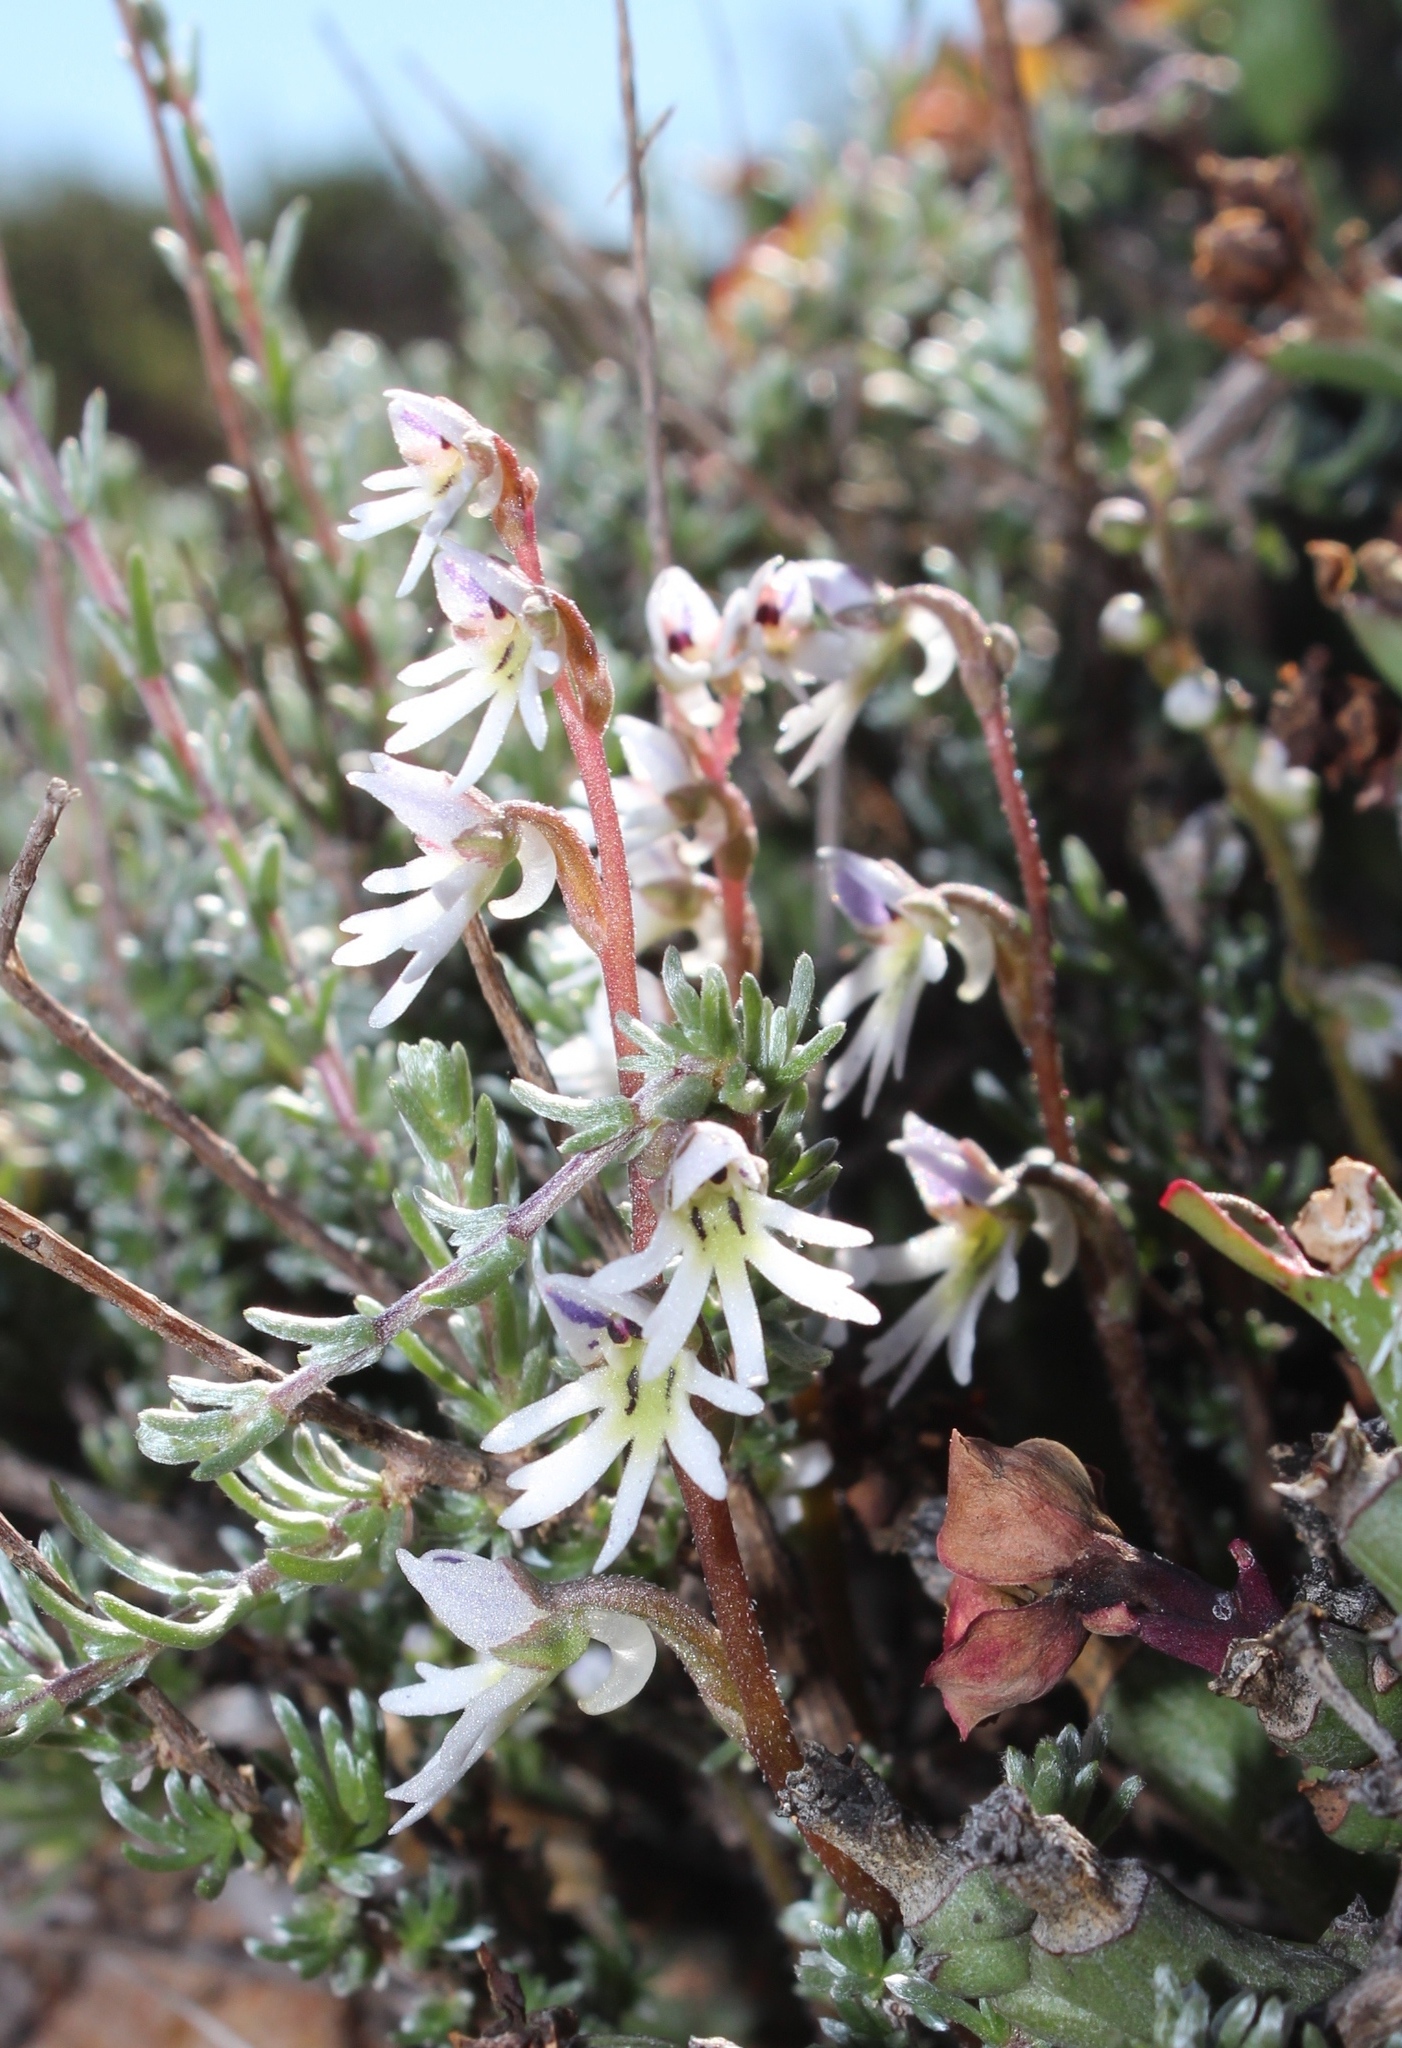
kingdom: Plantae
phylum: Tracheophyta
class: Liliopsida
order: Asparagales
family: Orchidaceae
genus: Holothrix
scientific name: Holothrix aspera
